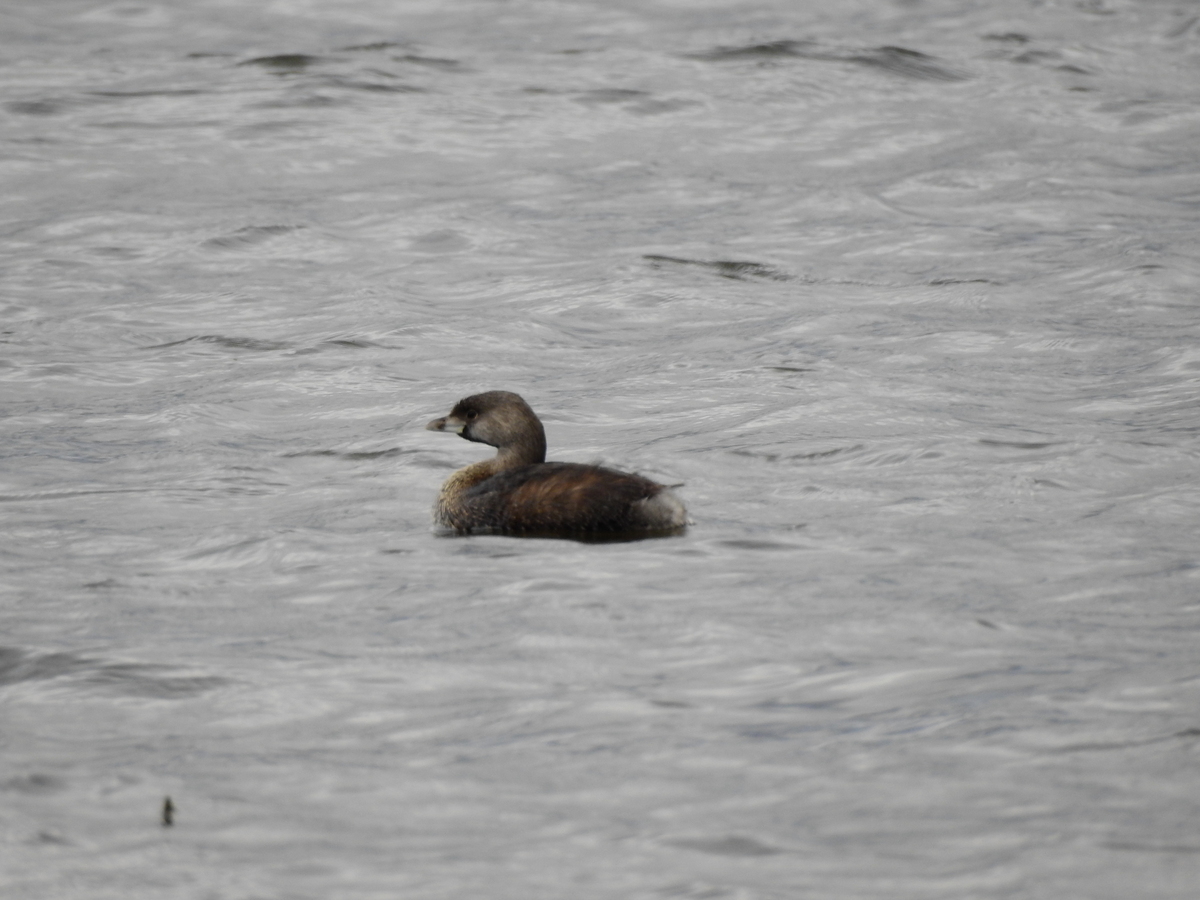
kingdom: Animalia
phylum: Chordata
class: Aves
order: Podicipediformes
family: Podicipedidae
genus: Podilymbus
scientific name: Podilymbus podiceps
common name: Pied-billed grebe
